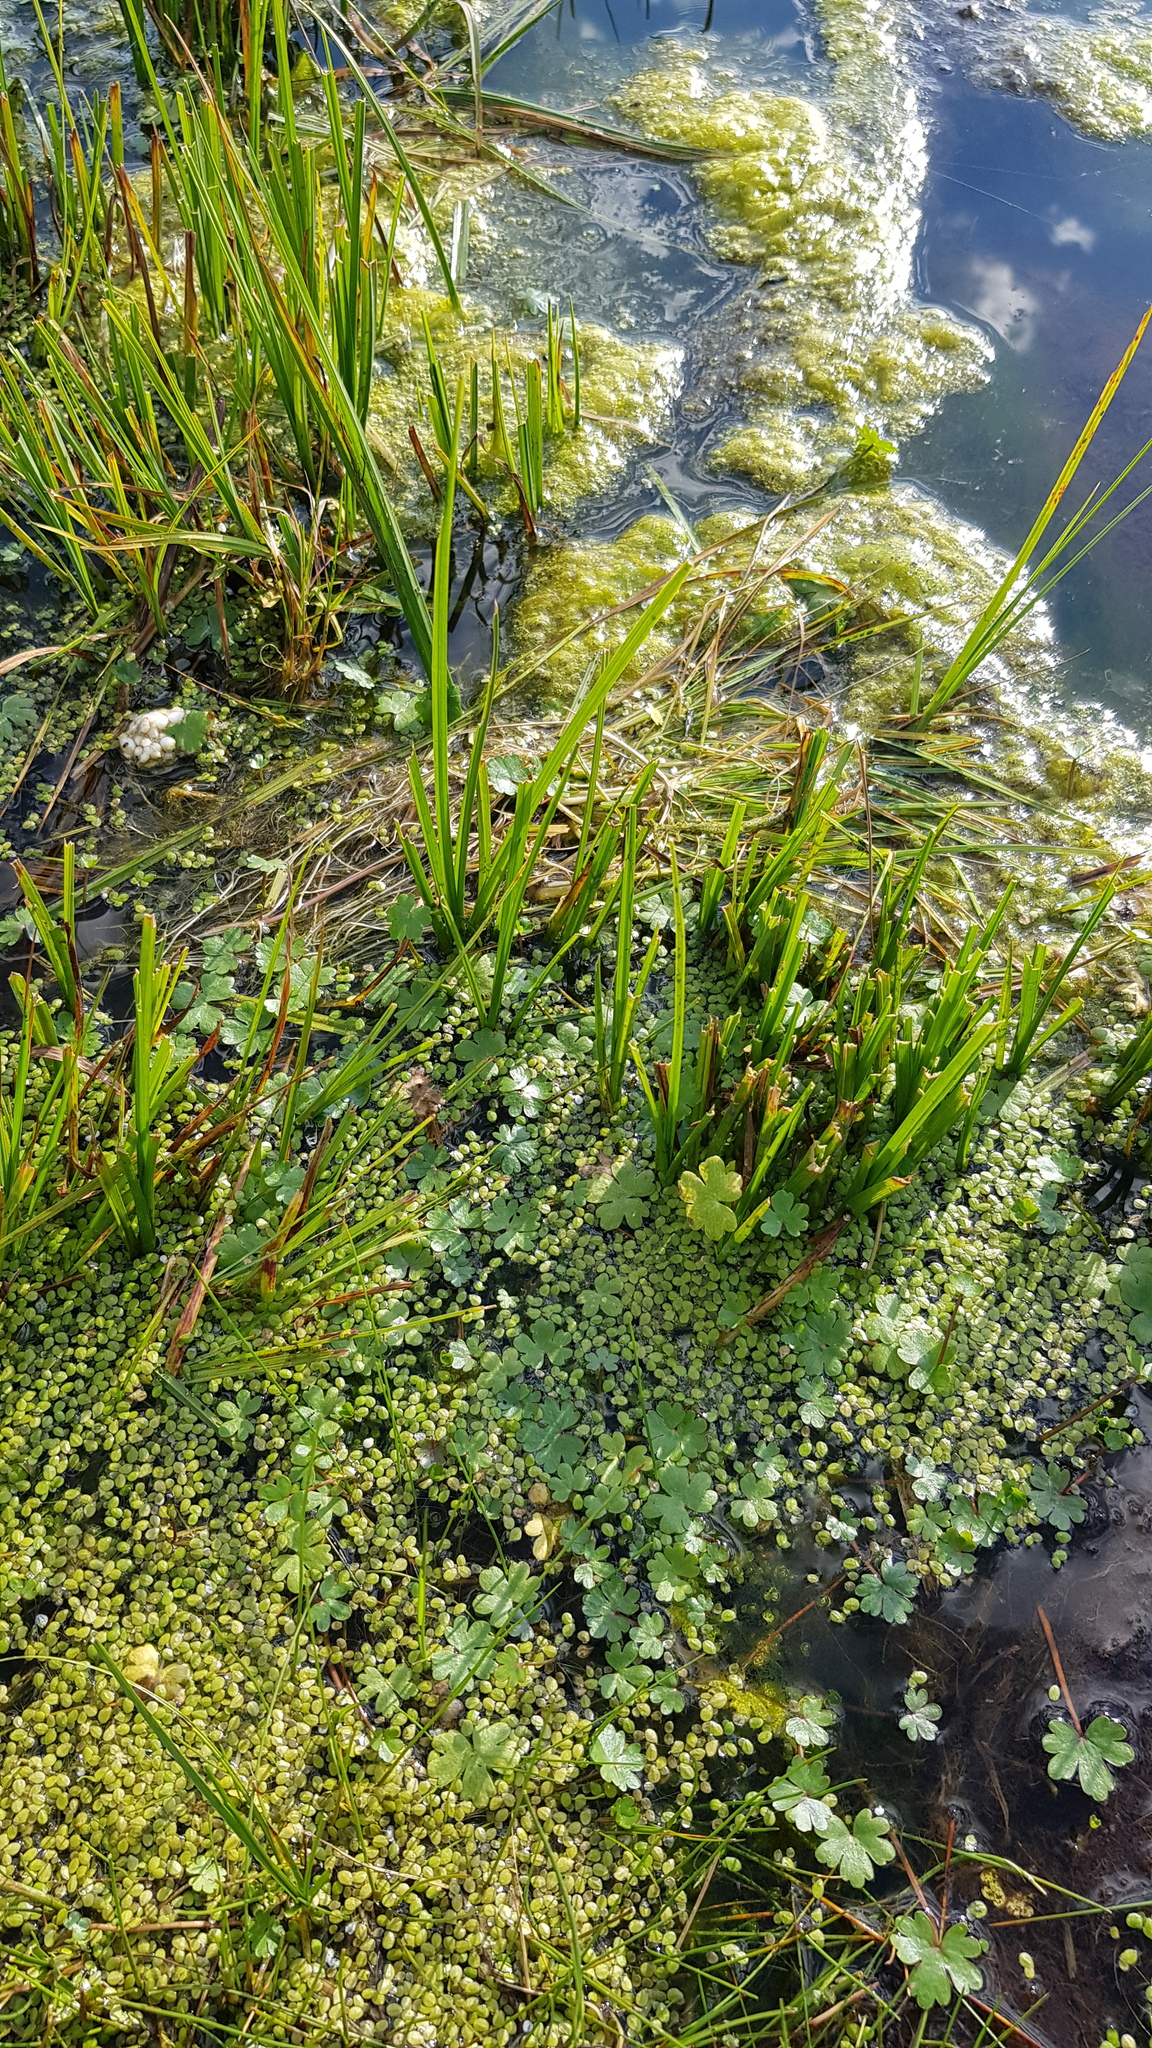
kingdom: Plantae
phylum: Tracheophyta
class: Liliopsida
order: Alismatales
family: Araceae
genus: Lemna
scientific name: Lemna minor
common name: Common duckweed
